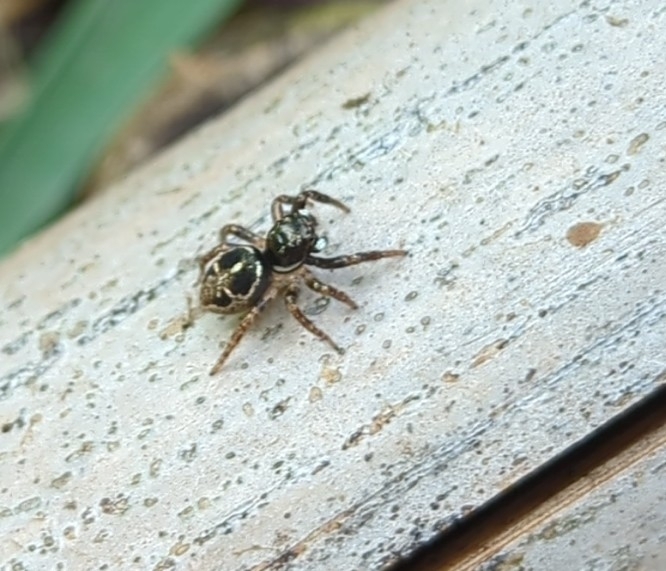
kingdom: Animalia
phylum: Arthropoda
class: Arachnida
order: Araneae
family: Salticidae
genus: Anasaitis
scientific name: Anasaitis canosa
